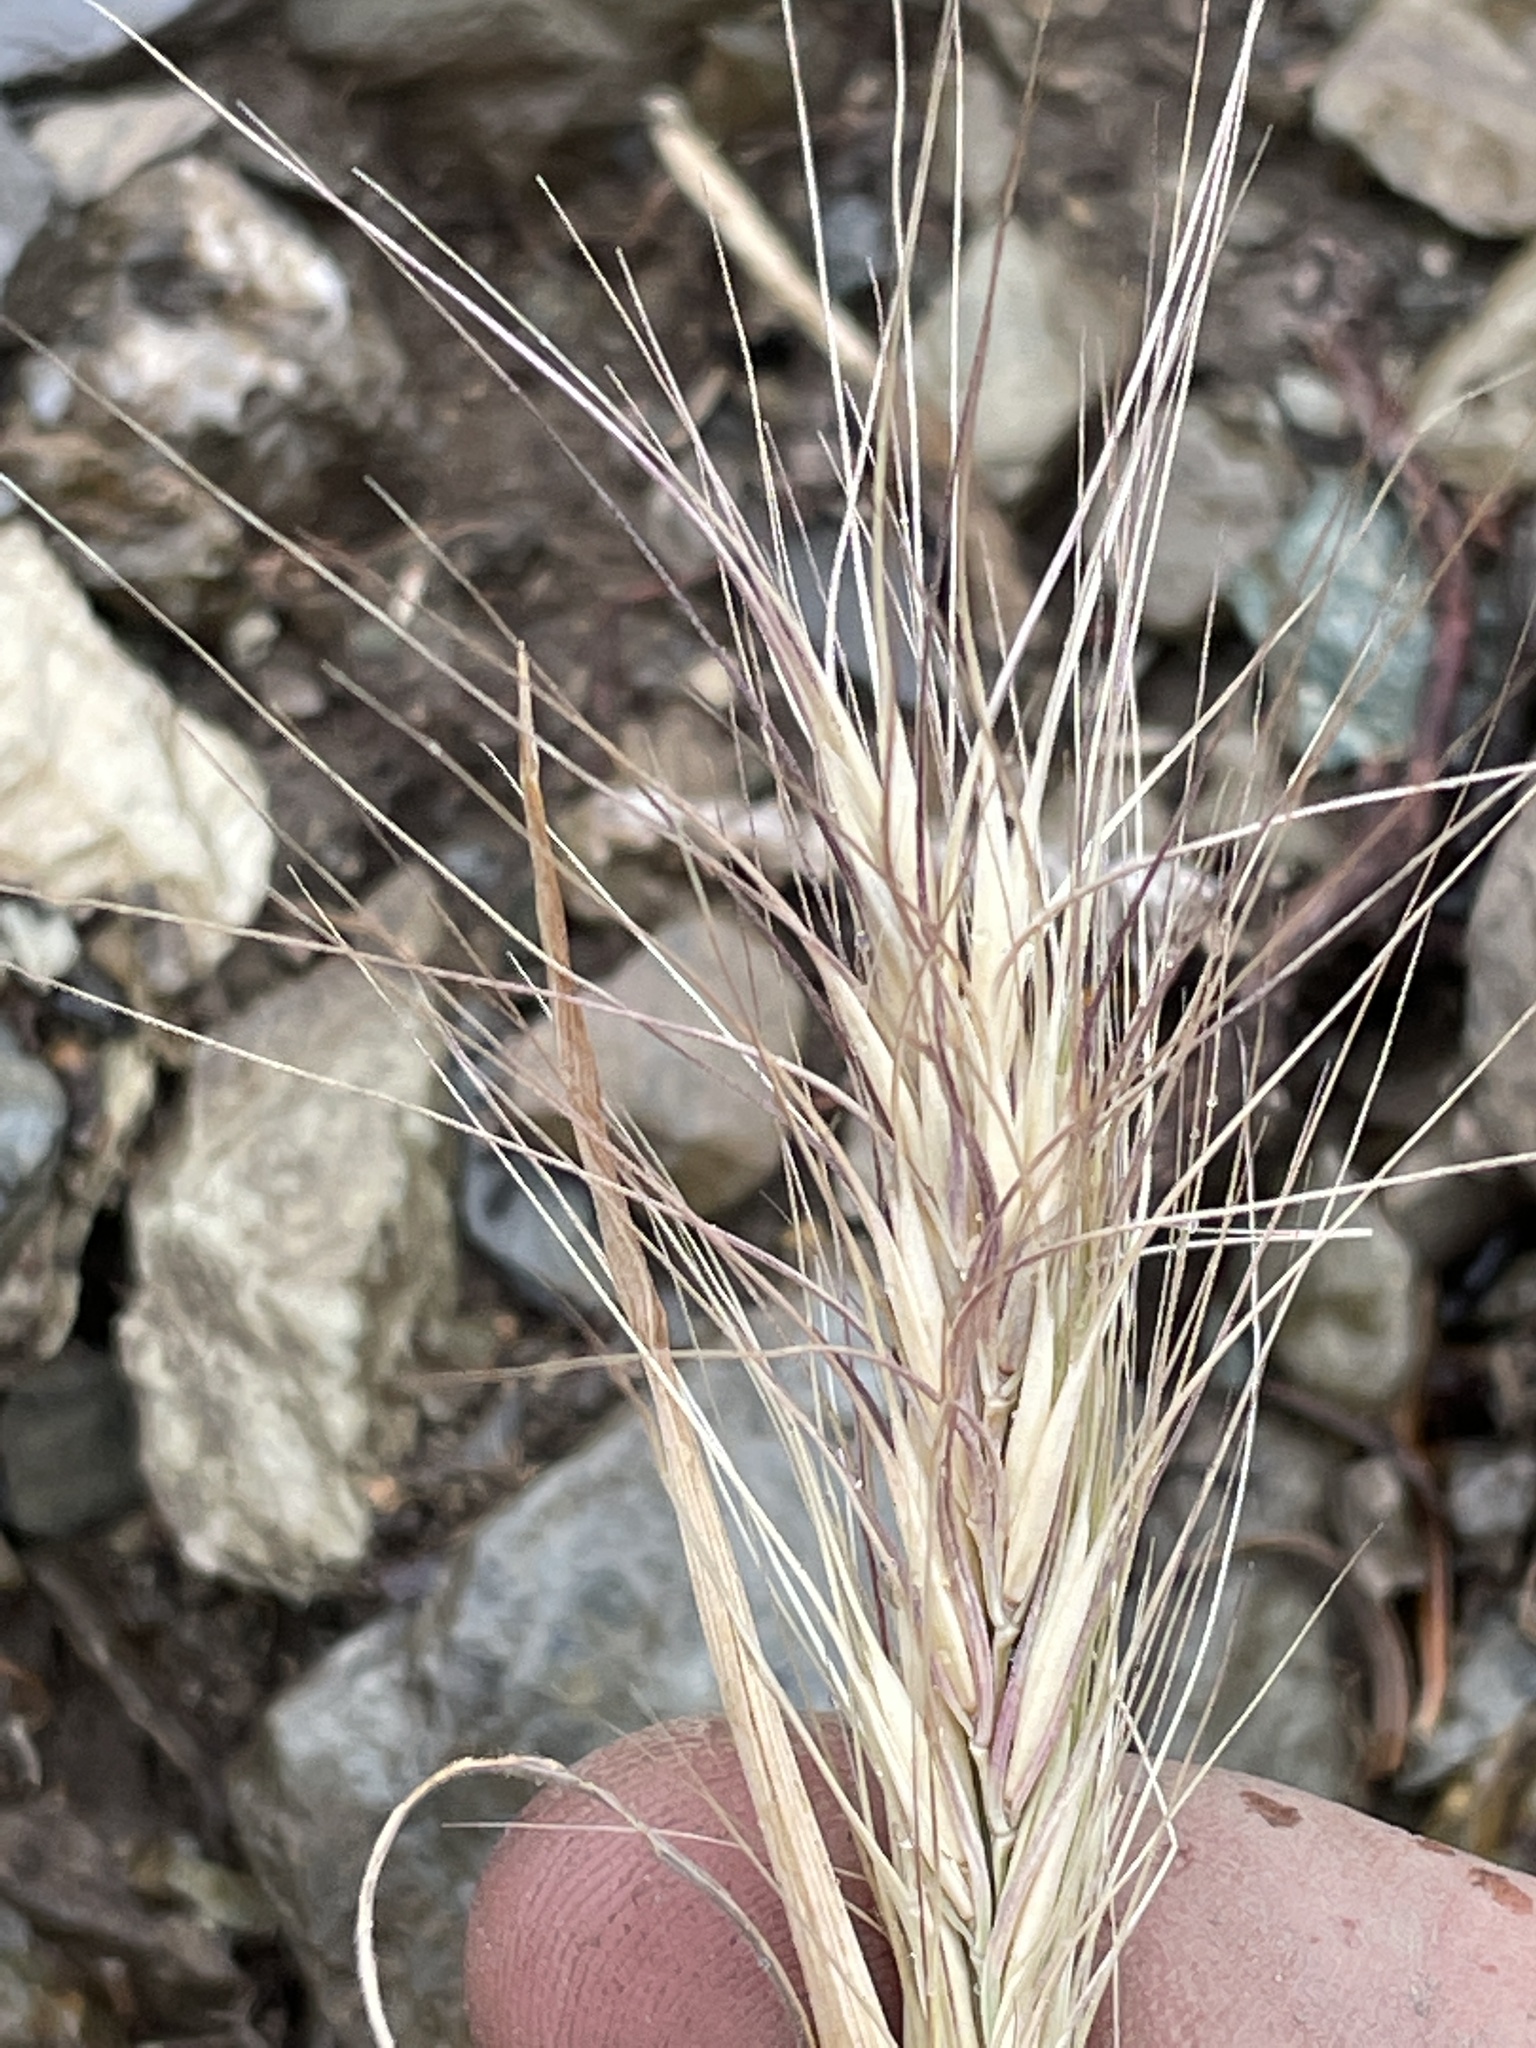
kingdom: Plantae
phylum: Tracheophyta
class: Liliopsida
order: Poales
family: Poaceae
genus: Elymus
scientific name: Elymus elymoides
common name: Bottlebrush squirreltail
